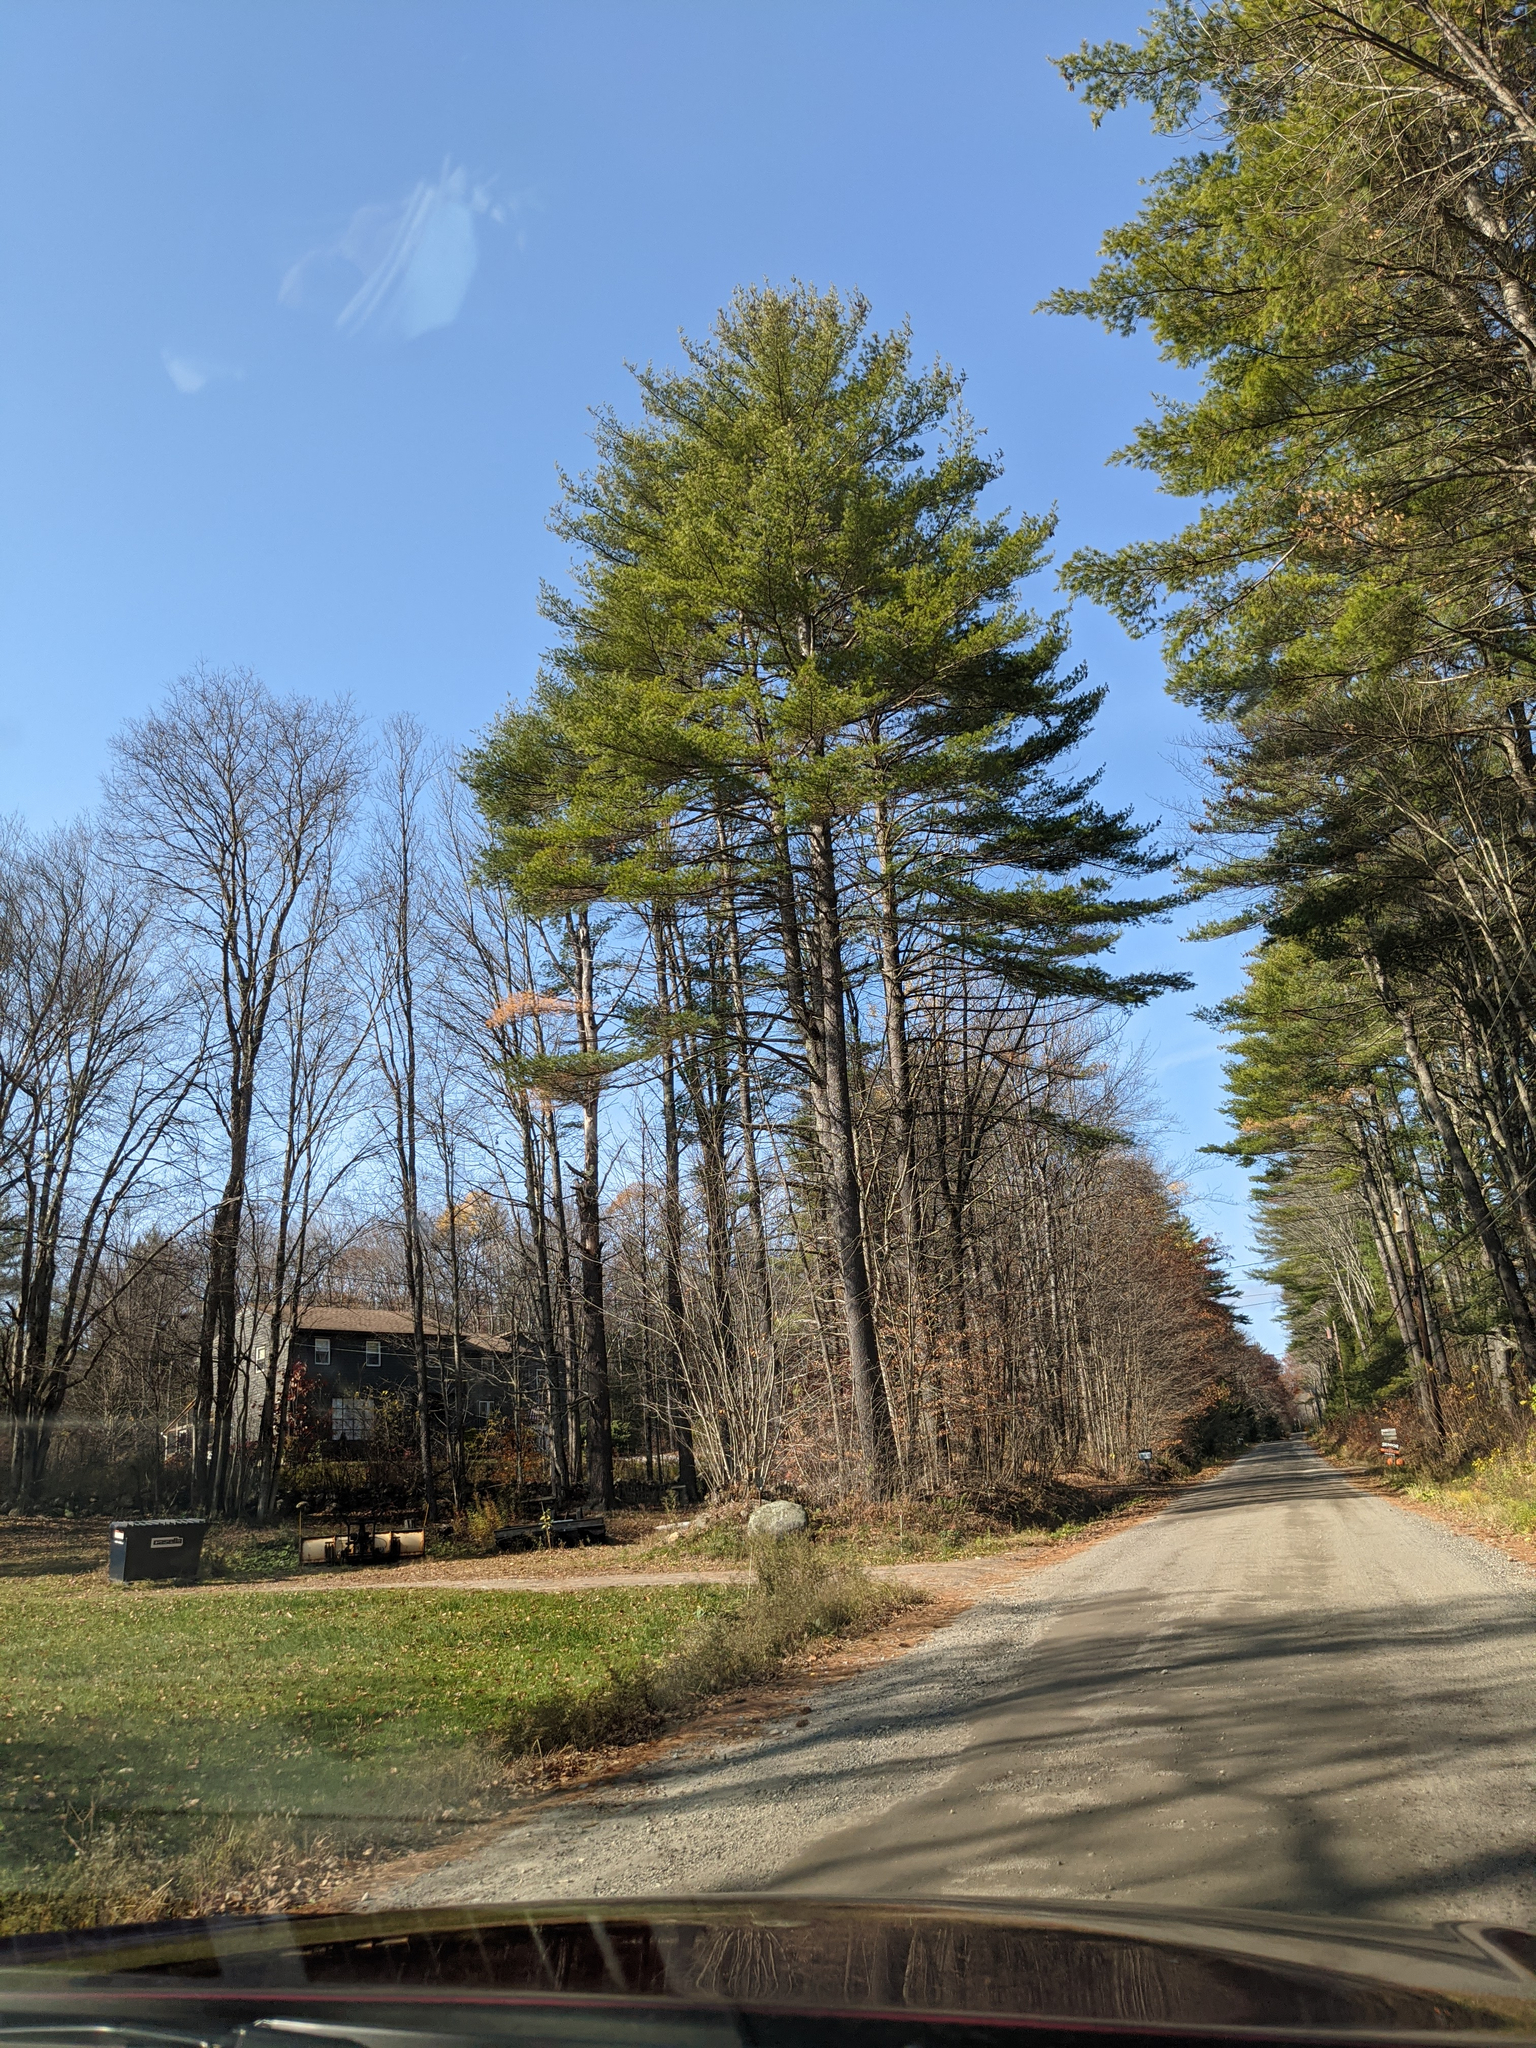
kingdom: Plantae
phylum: Tracheophyta
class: Pinopsida
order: Pinales
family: Pinaceae
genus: Pinus
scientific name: Pinus strobus
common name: Weymouth pine
